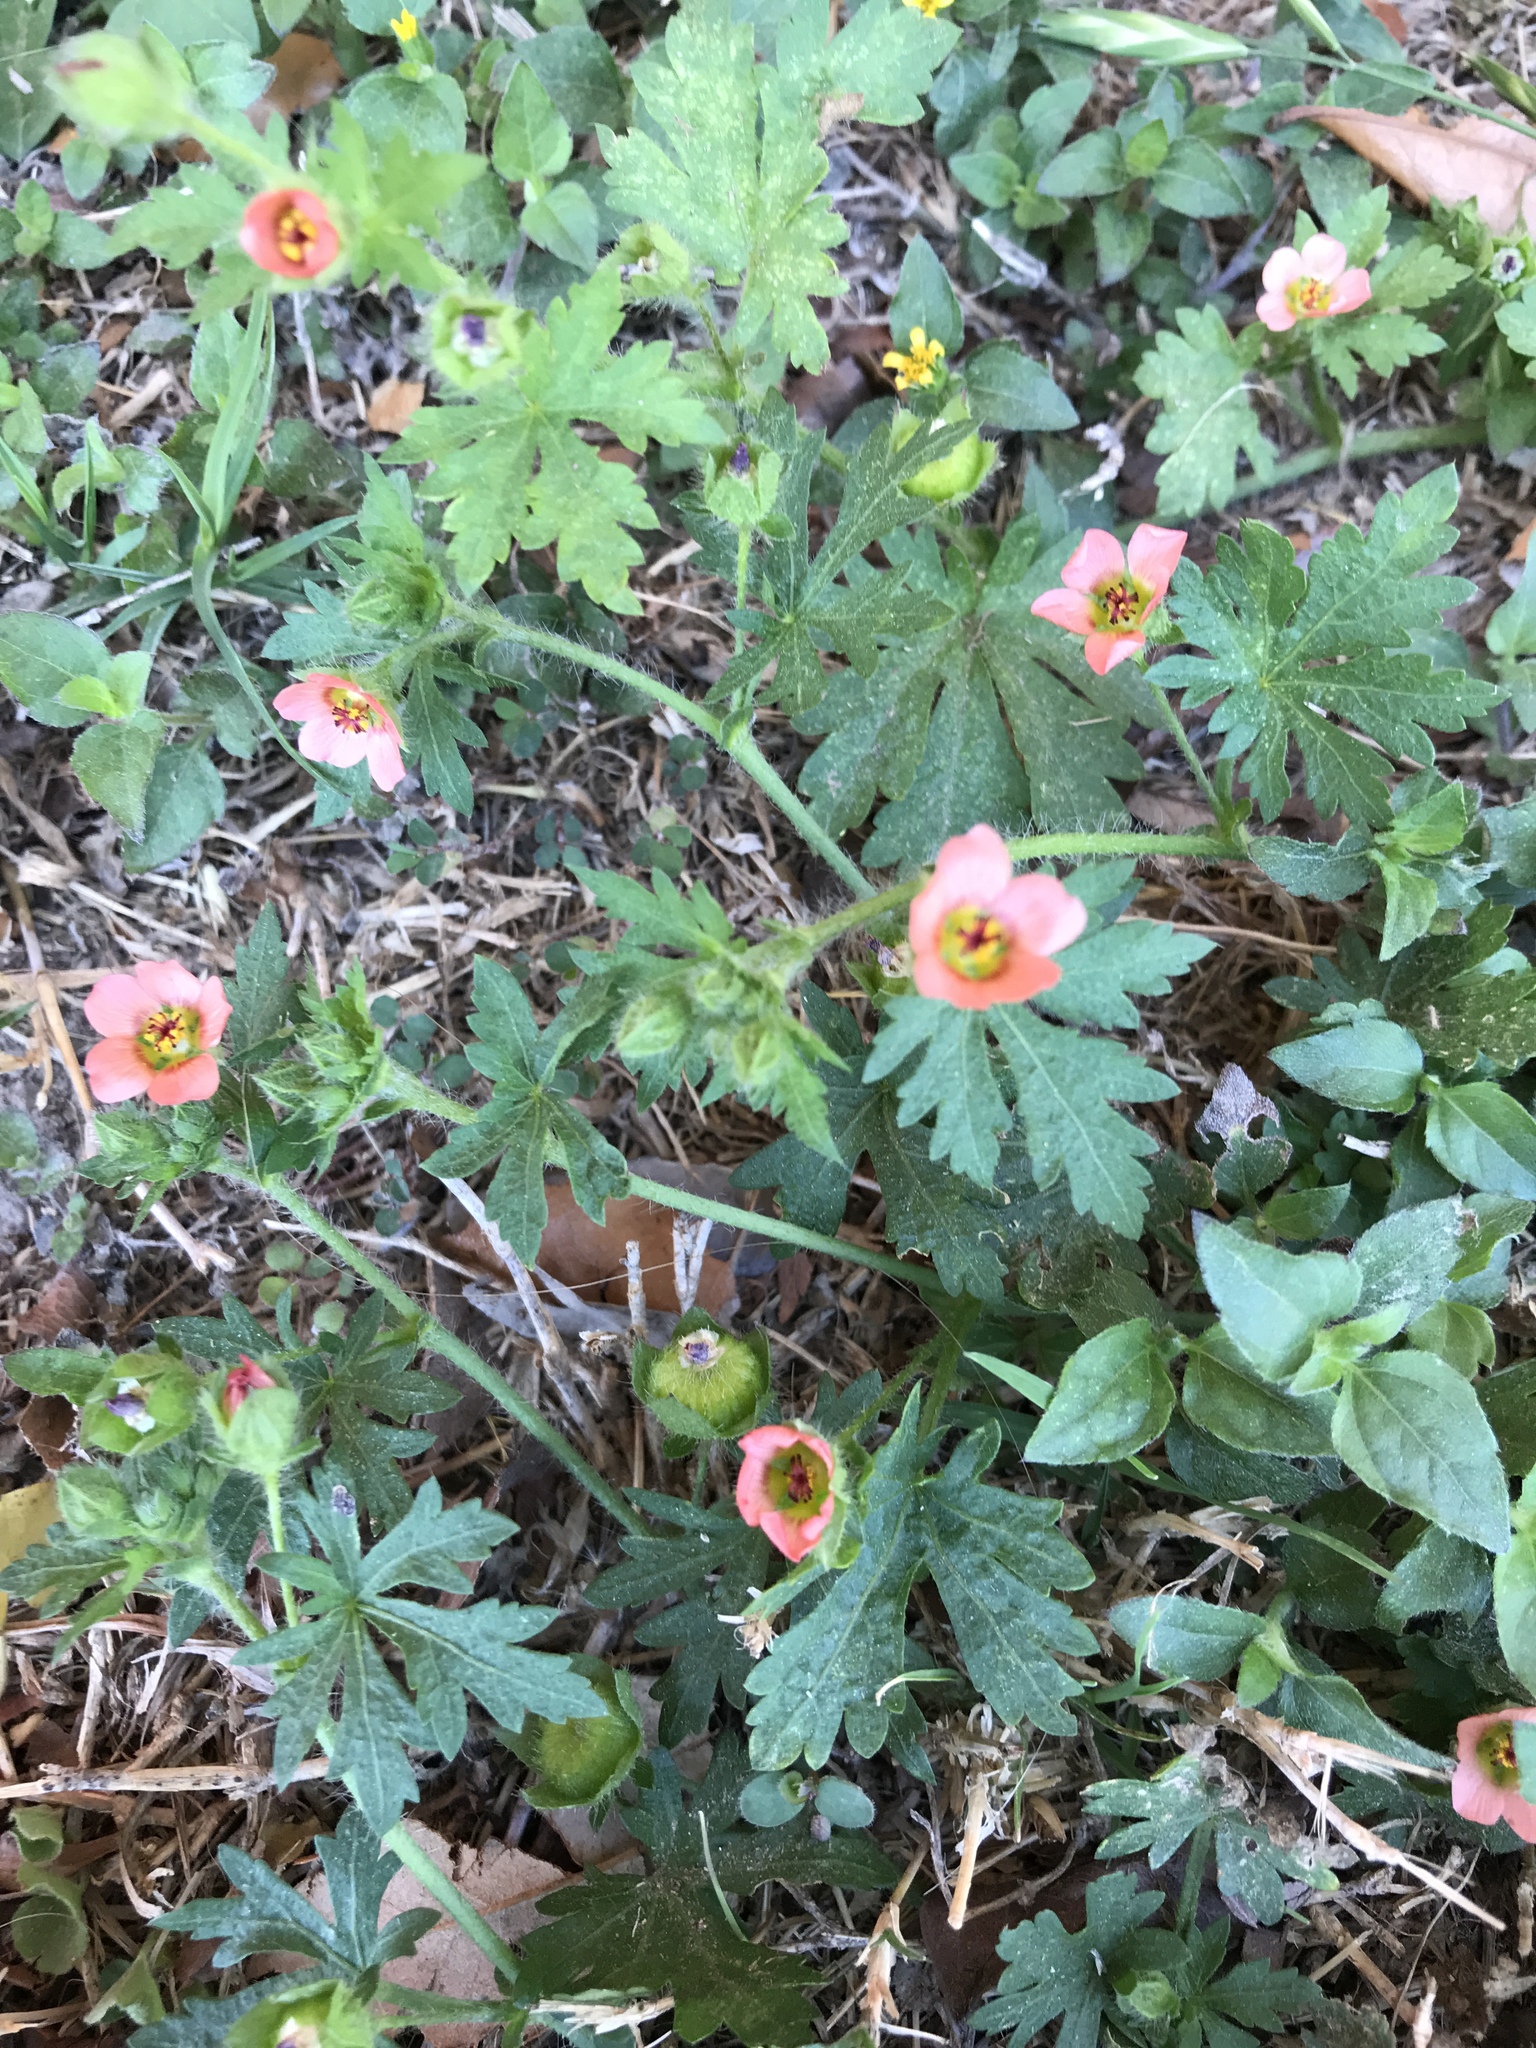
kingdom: Plantae
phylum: Tracheophyta
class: Magnoliopsida
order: Malvales
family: Malvaceae
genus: Modiola
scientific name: Modiola caroliniana
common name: Carolina bristlemallow
